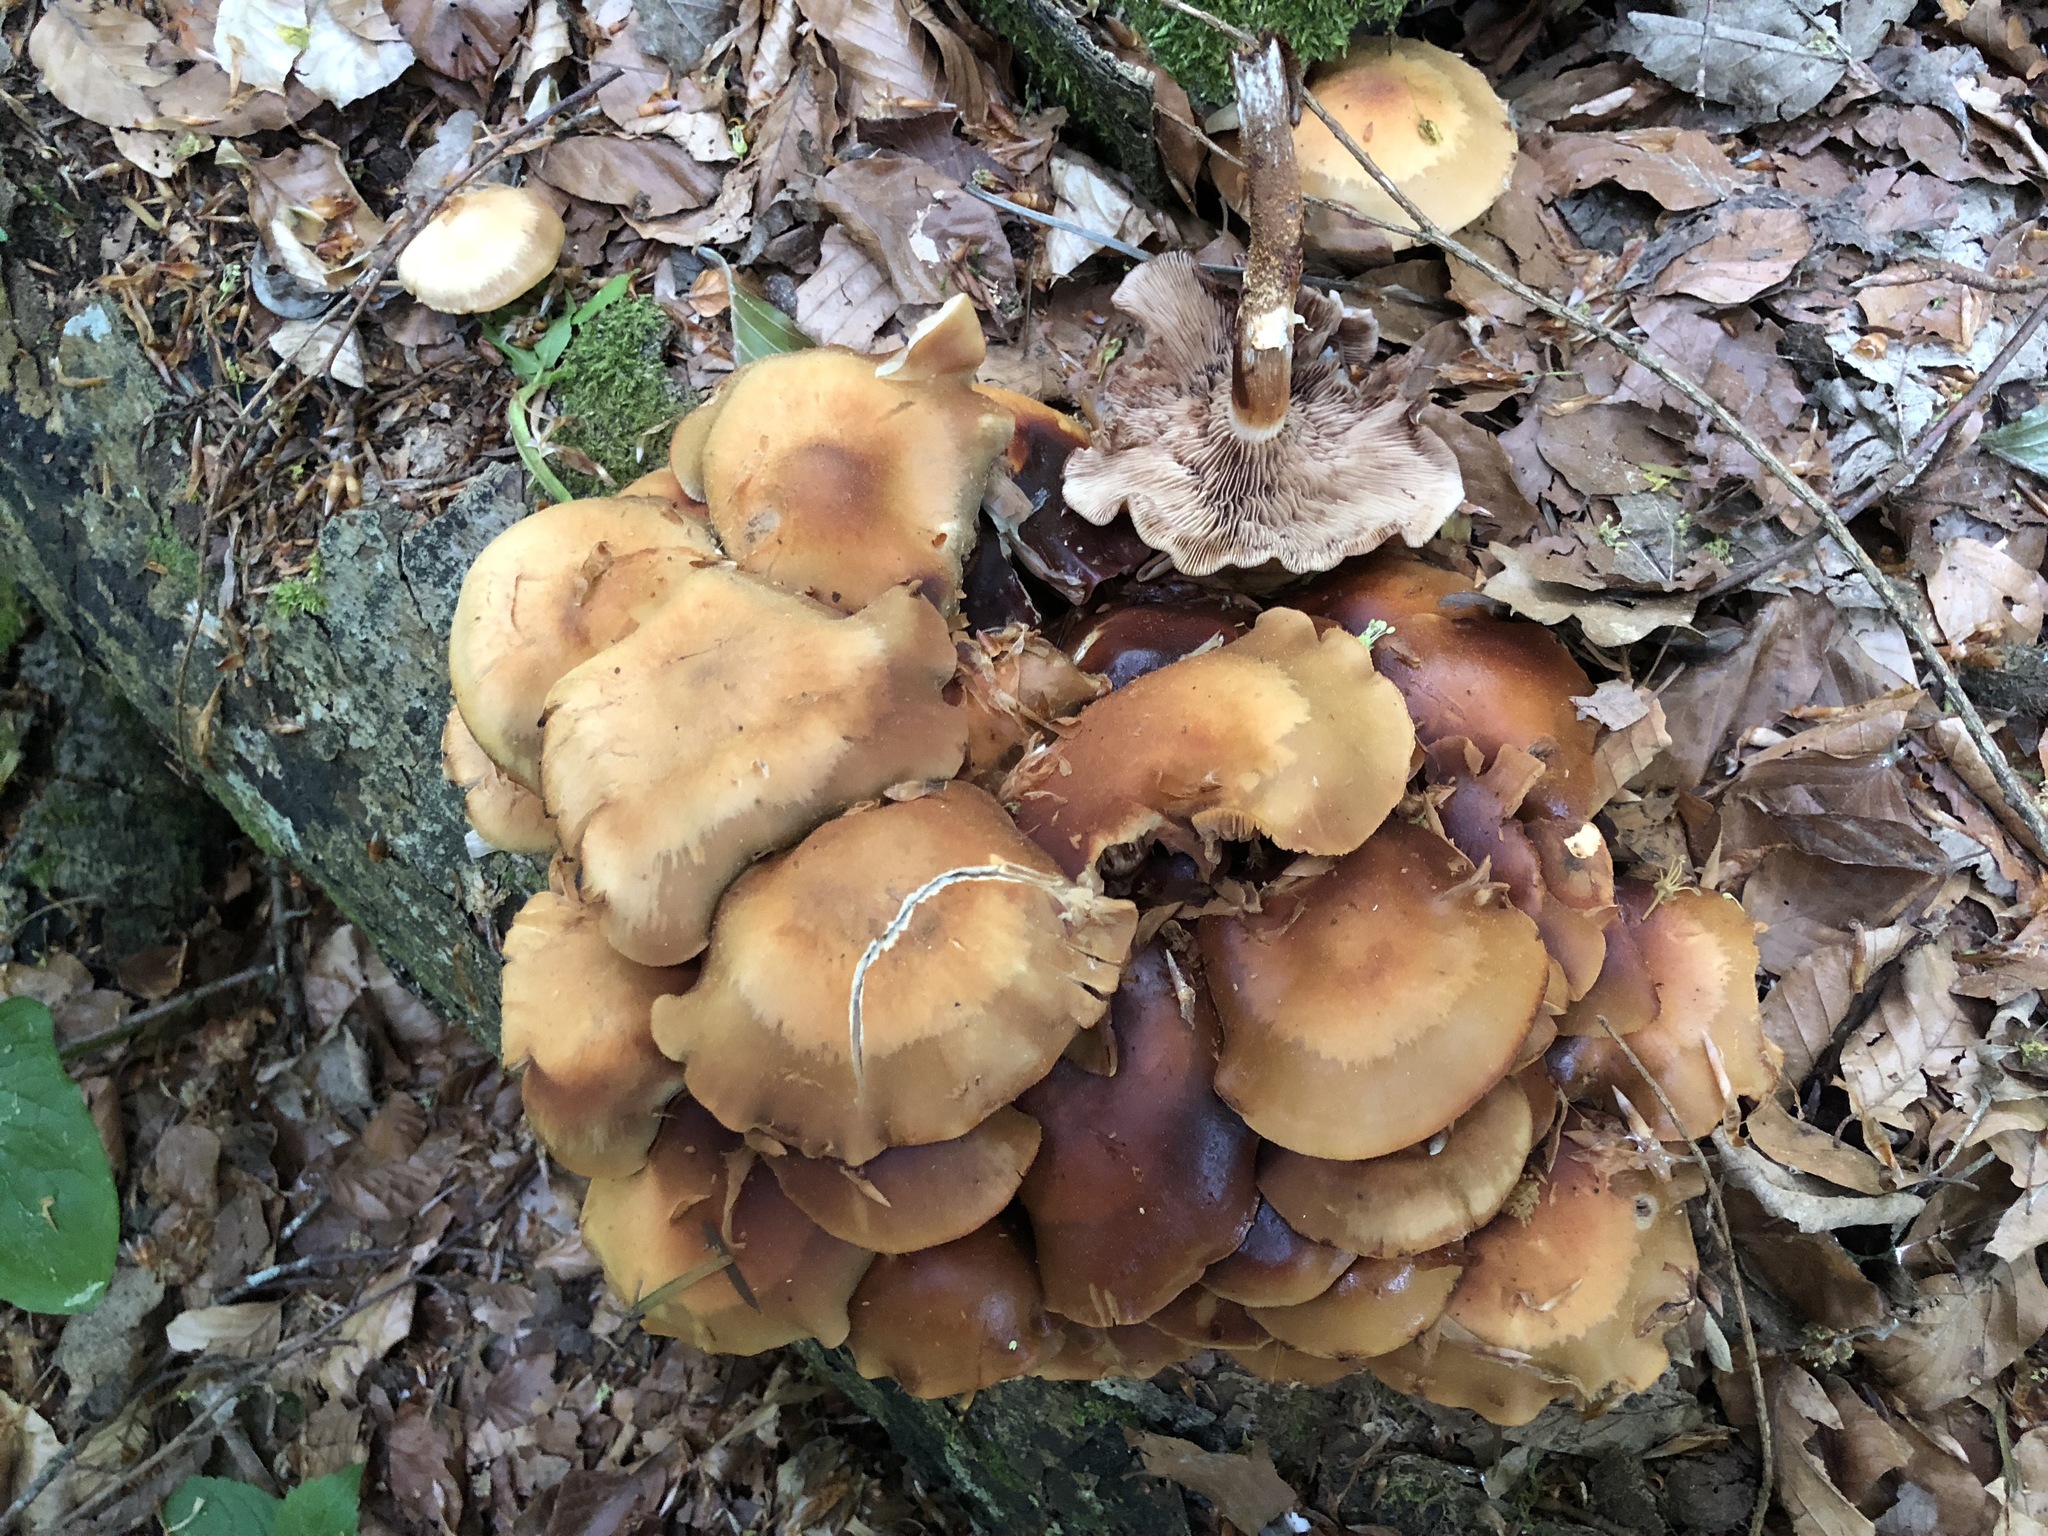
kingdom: Fungi
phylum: Basidiomycota
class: Agaricomycetes
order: Agaricales
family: Strophariaceae
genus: Kuehneromyces
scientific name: Kuehneromyces mutabilis
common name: Sheathed woodtuft
